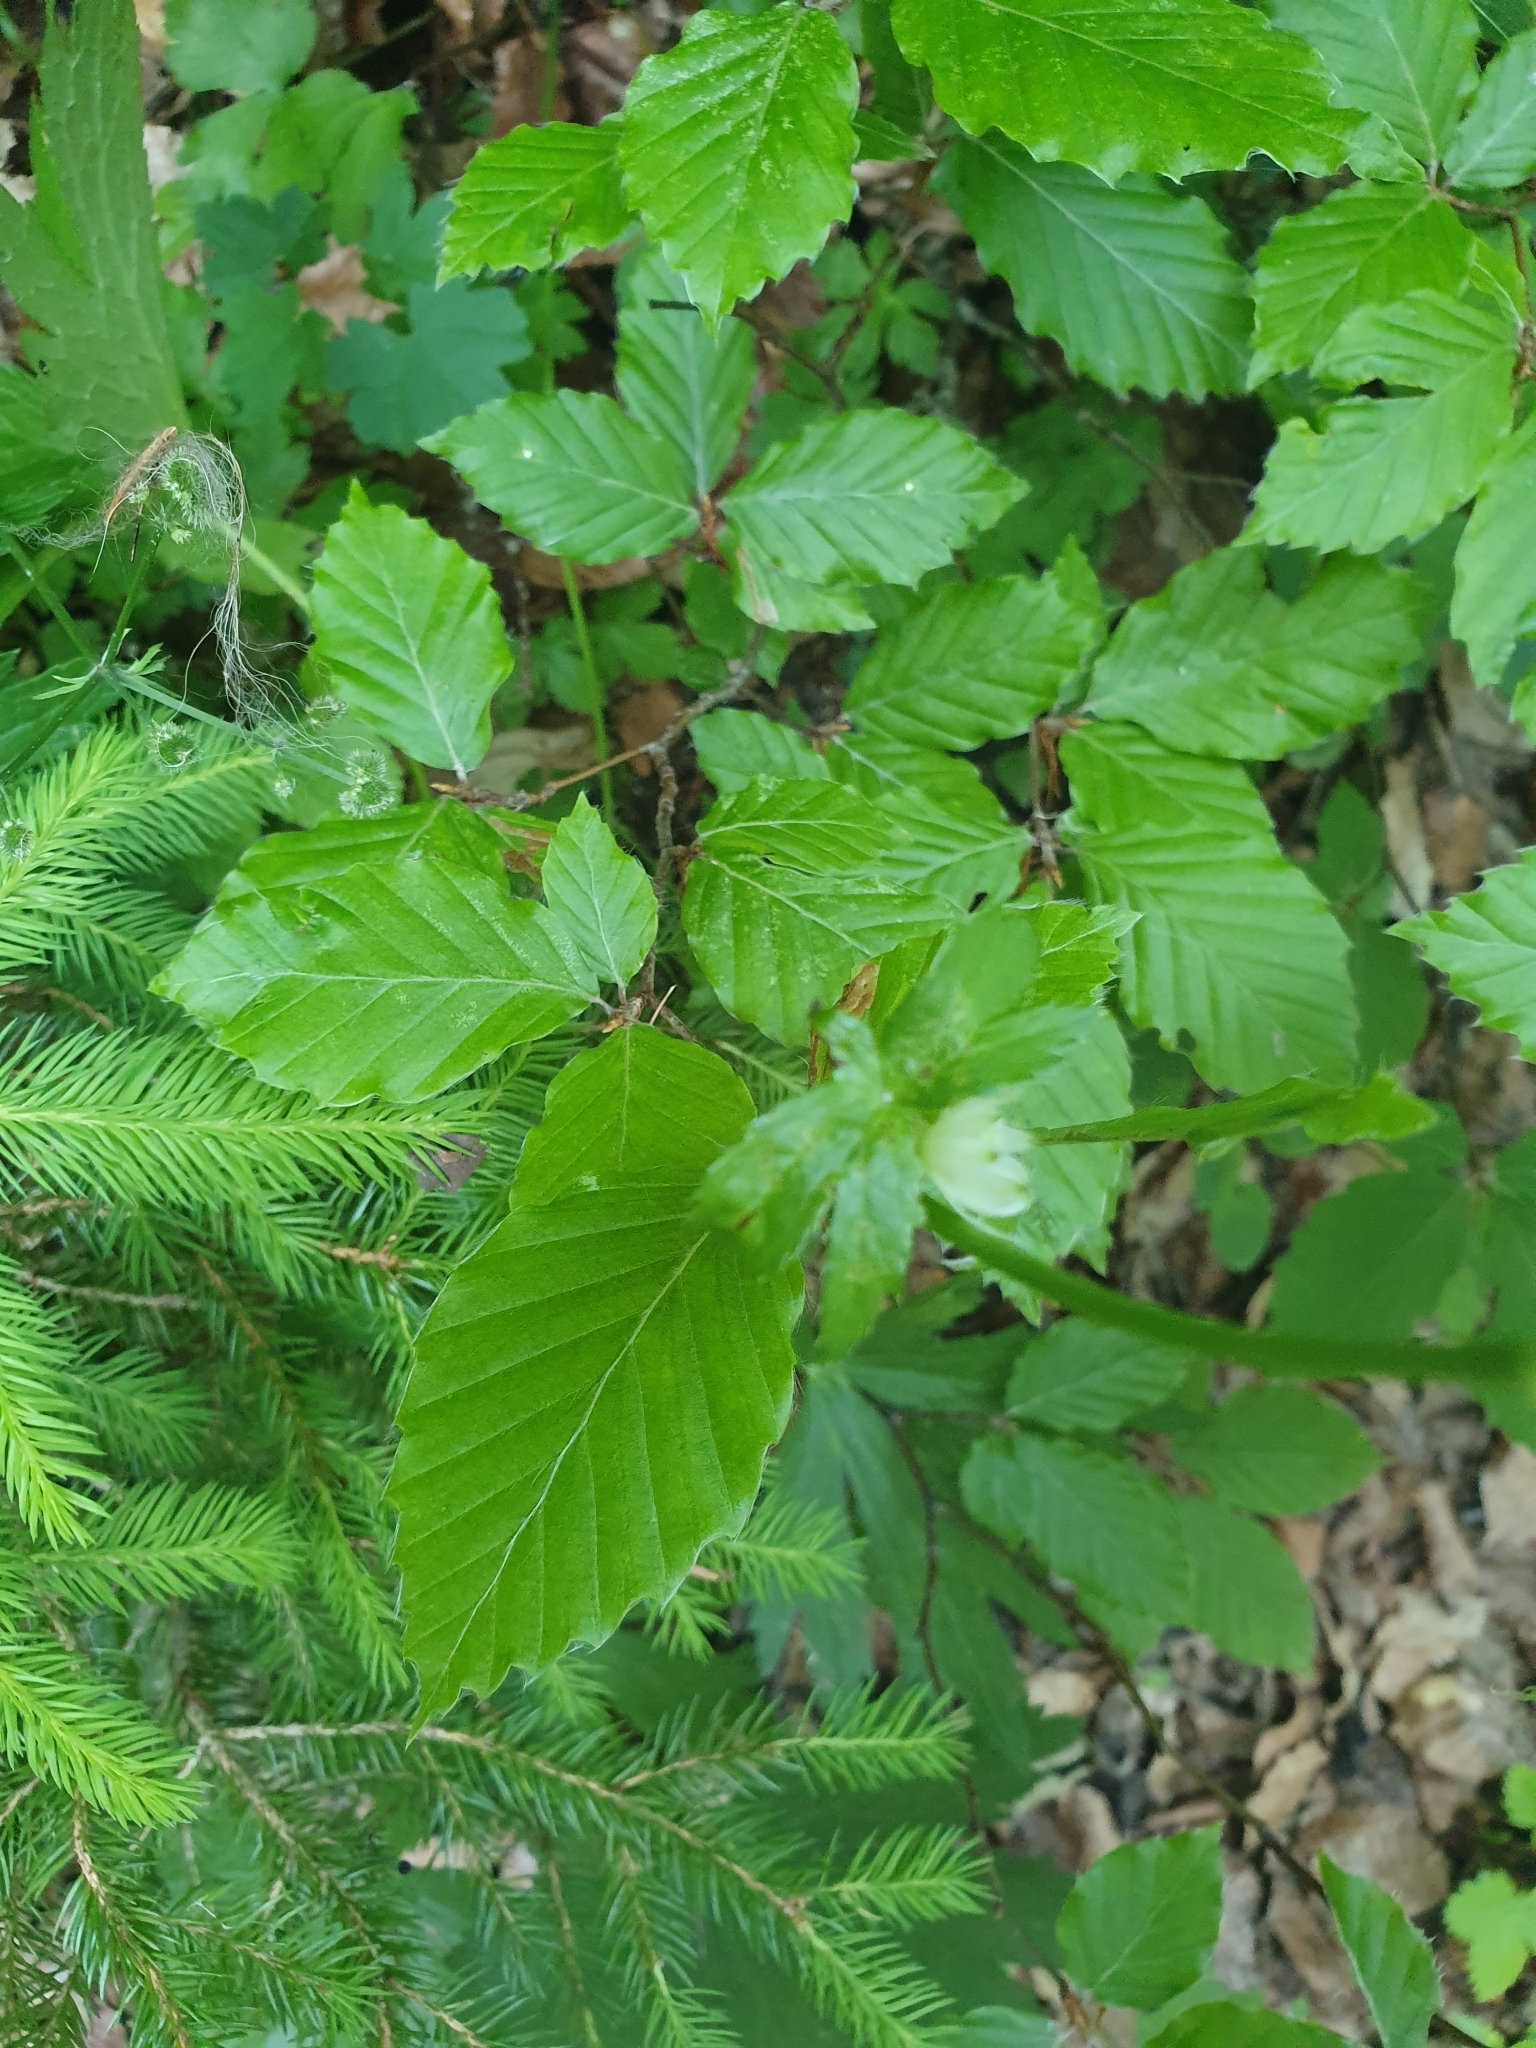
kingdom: Plantae
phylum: Tracheophyta
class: Magnoliopsida
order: Apiales
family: Apiaceae
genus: Astrantia
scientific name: Astrantia major
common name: Greater masterwort
